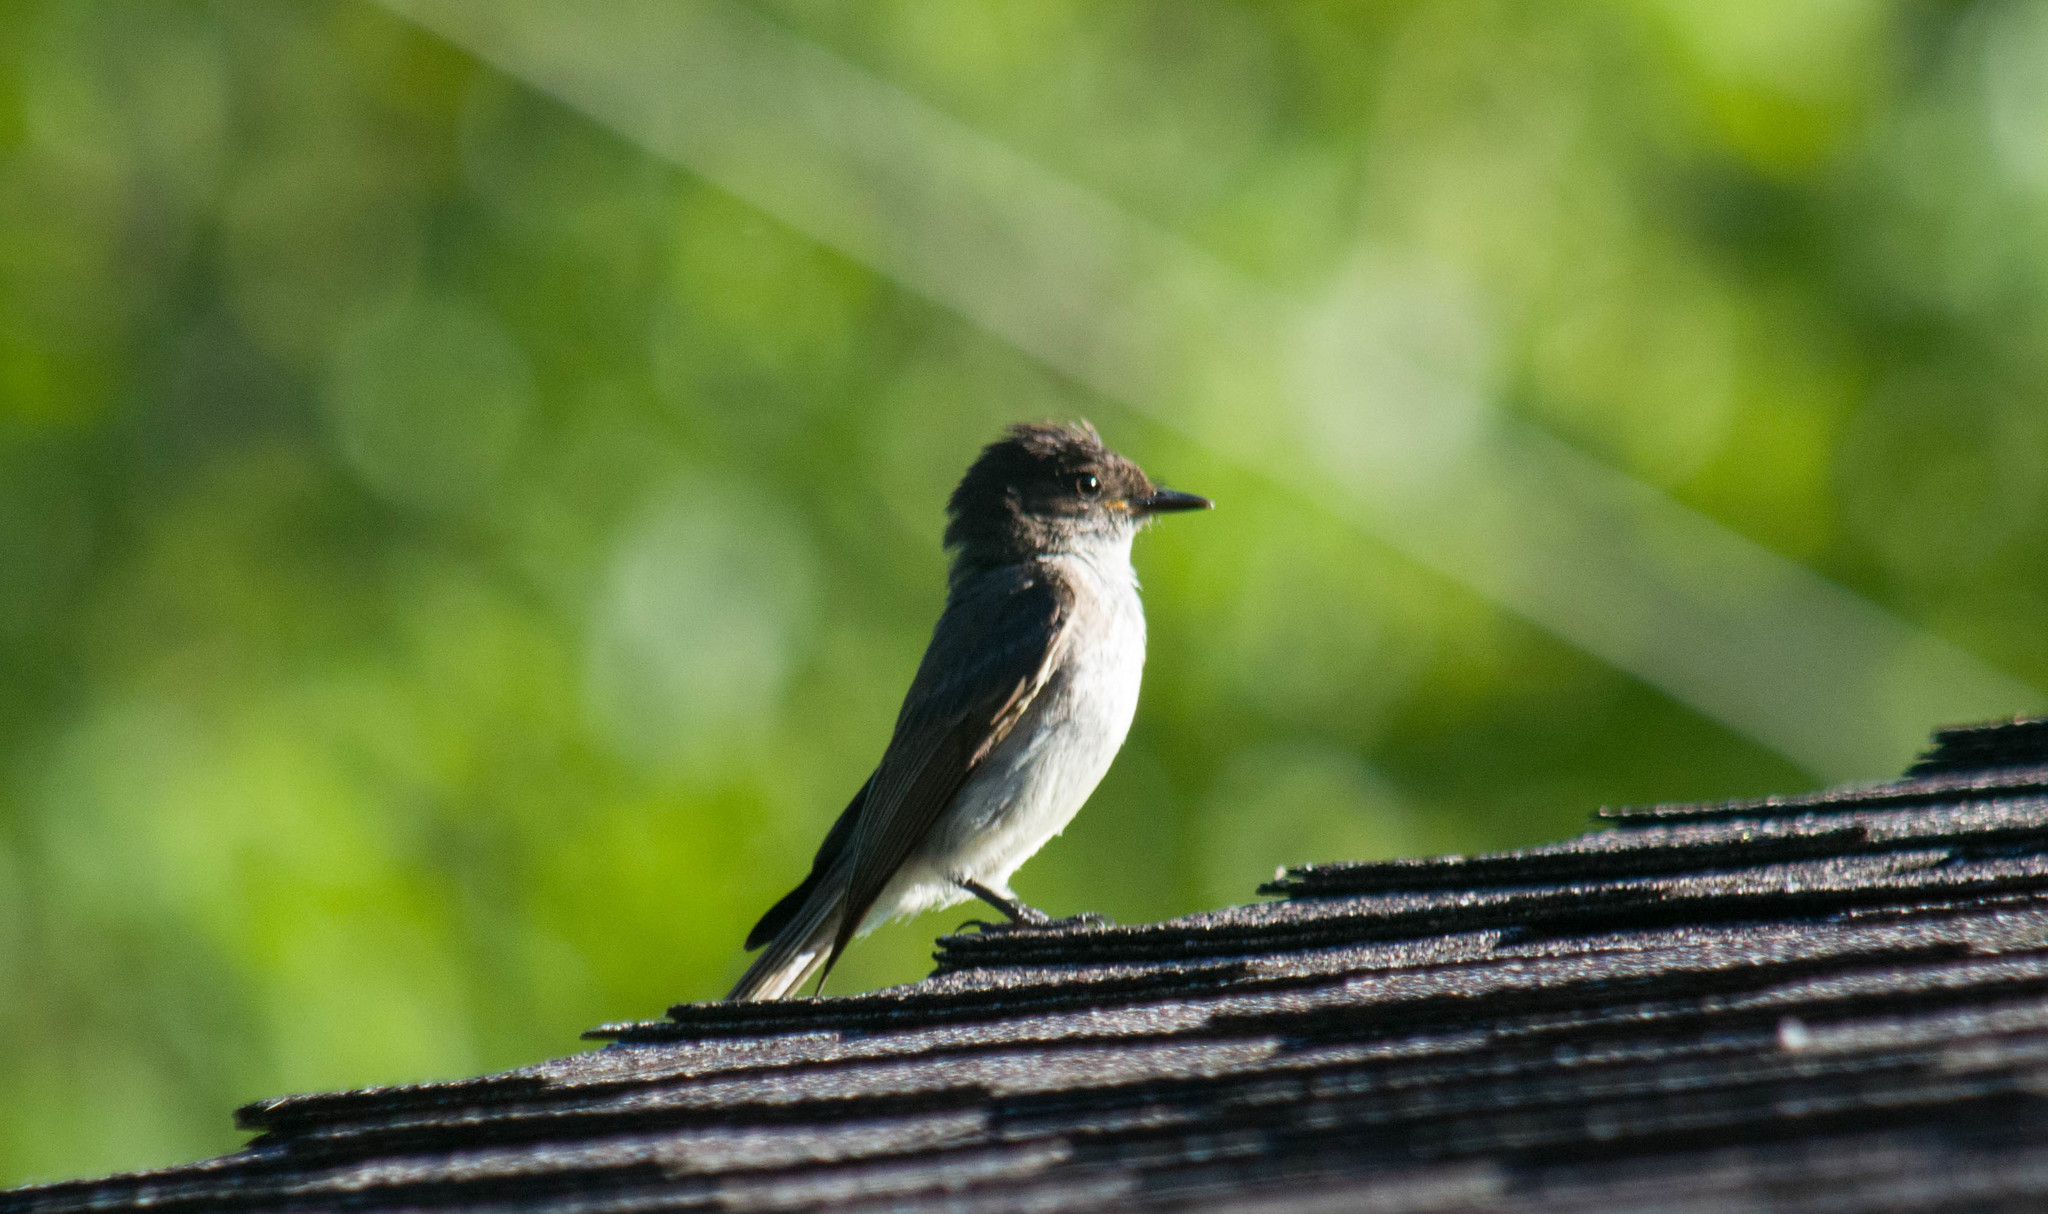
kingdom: Animalia
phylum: Chordata
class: Aves
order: Passeriformes
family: Tyrannidae
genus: Sayornis
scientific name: Sayornis phoebe
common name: Eastern phoebe
